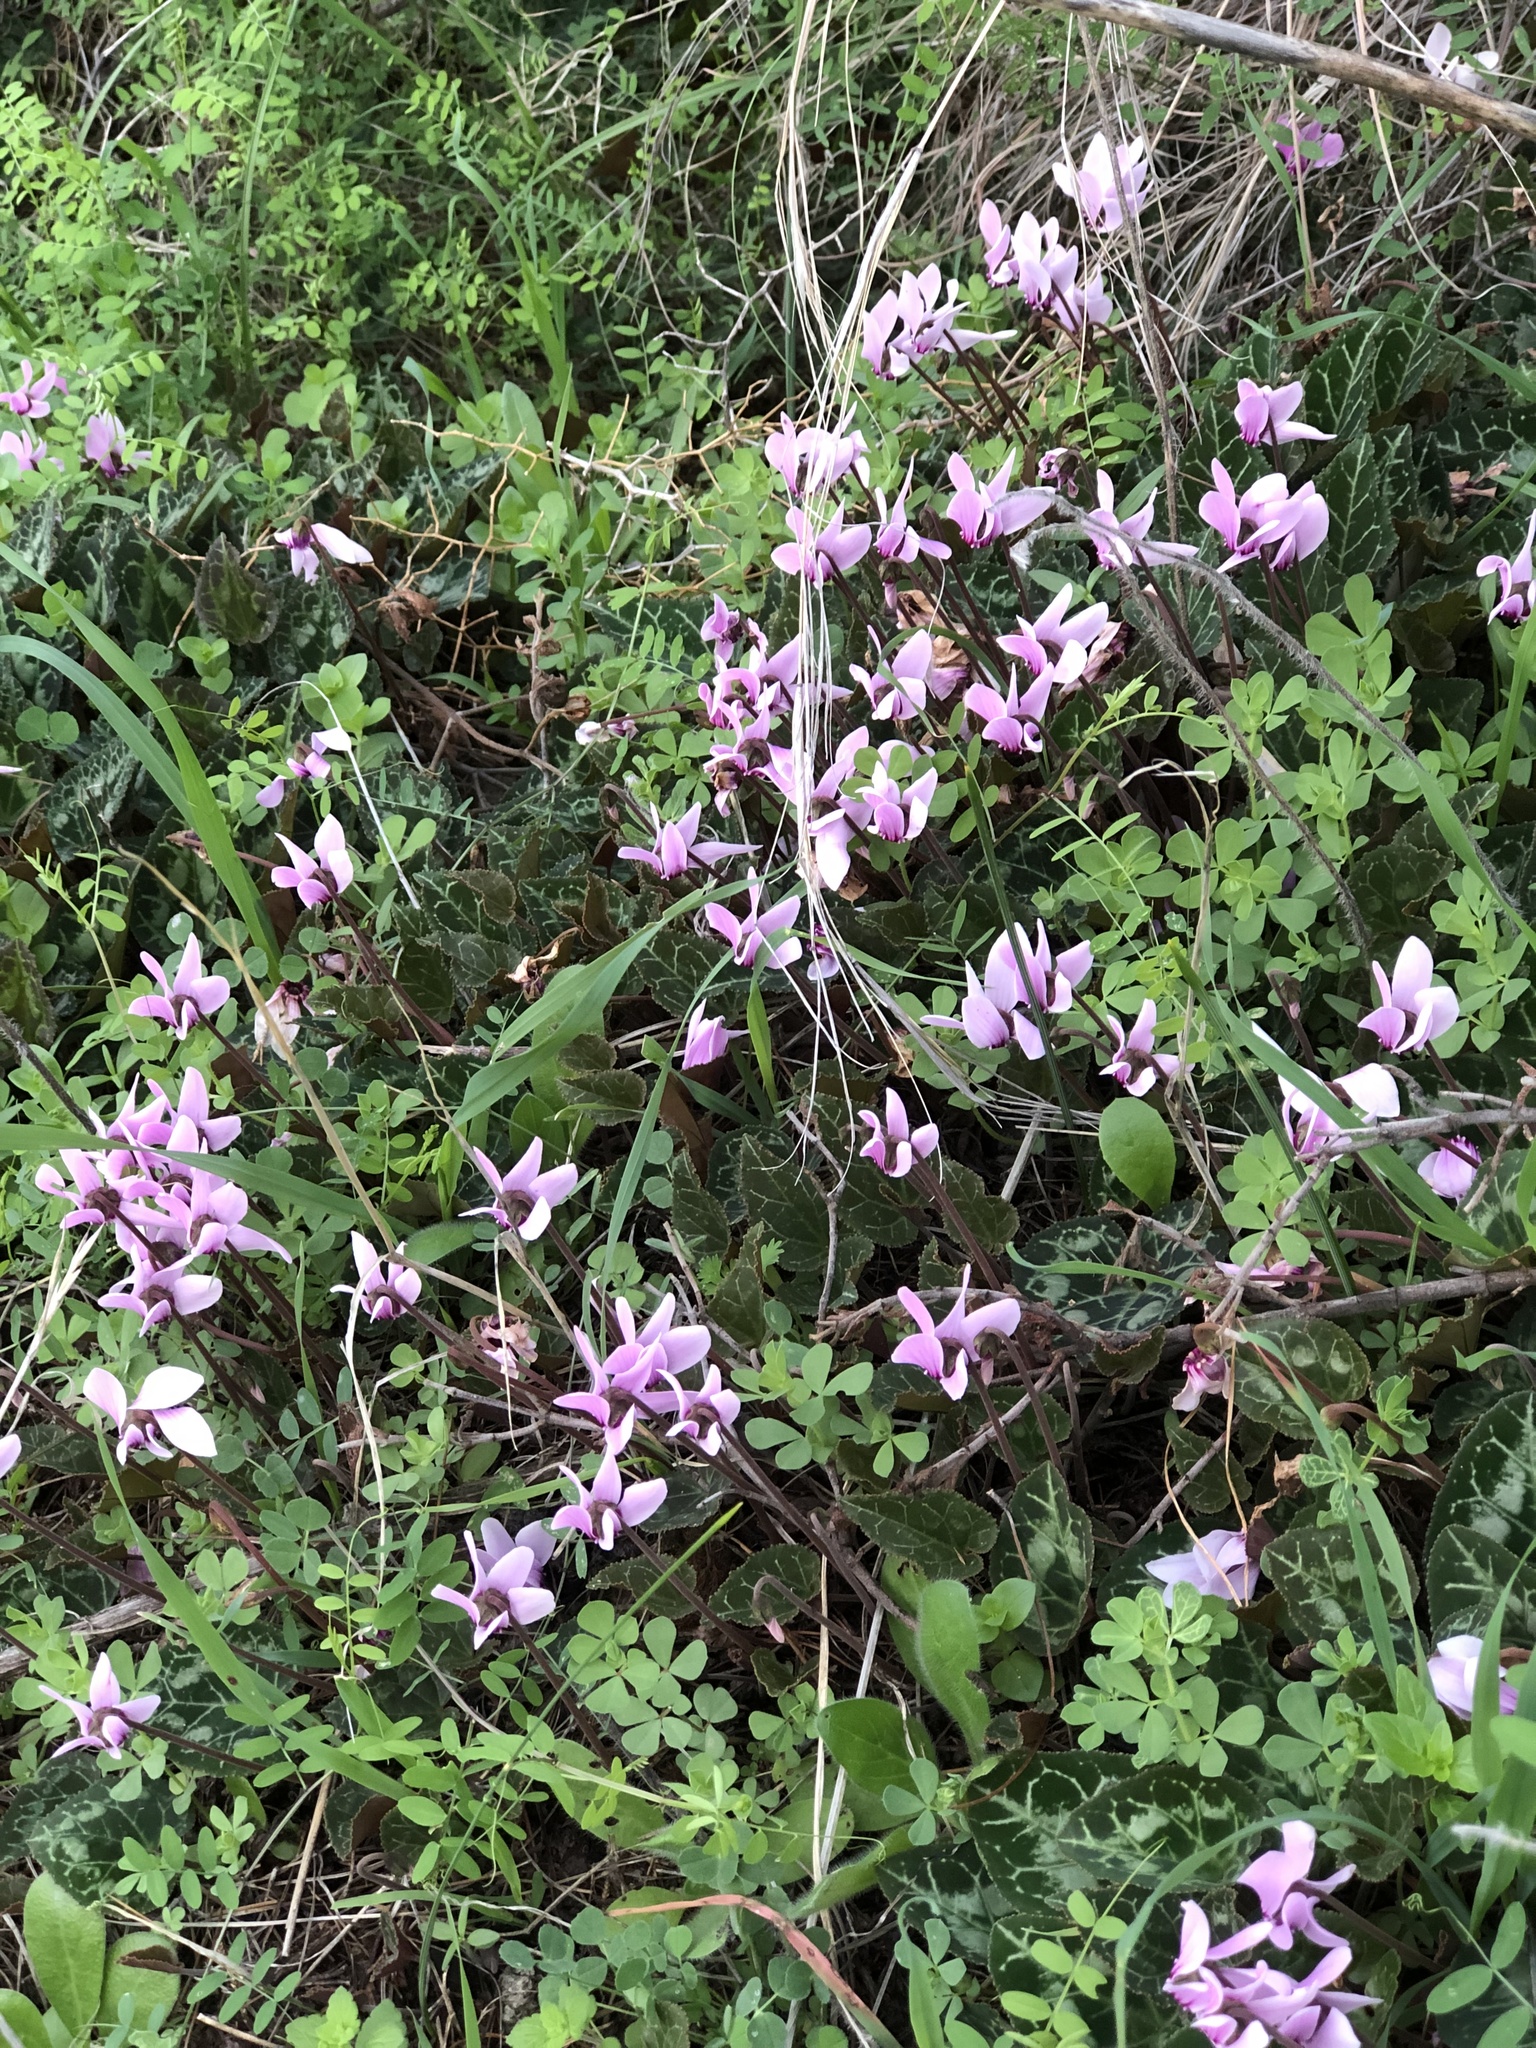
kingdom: Plantae
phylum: Tracheophyta
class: Magnoliopsida
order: Ericales
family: Primulaceae
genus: Cyclamen
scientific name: Cyclamen graecum
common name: Greek cyclamen
